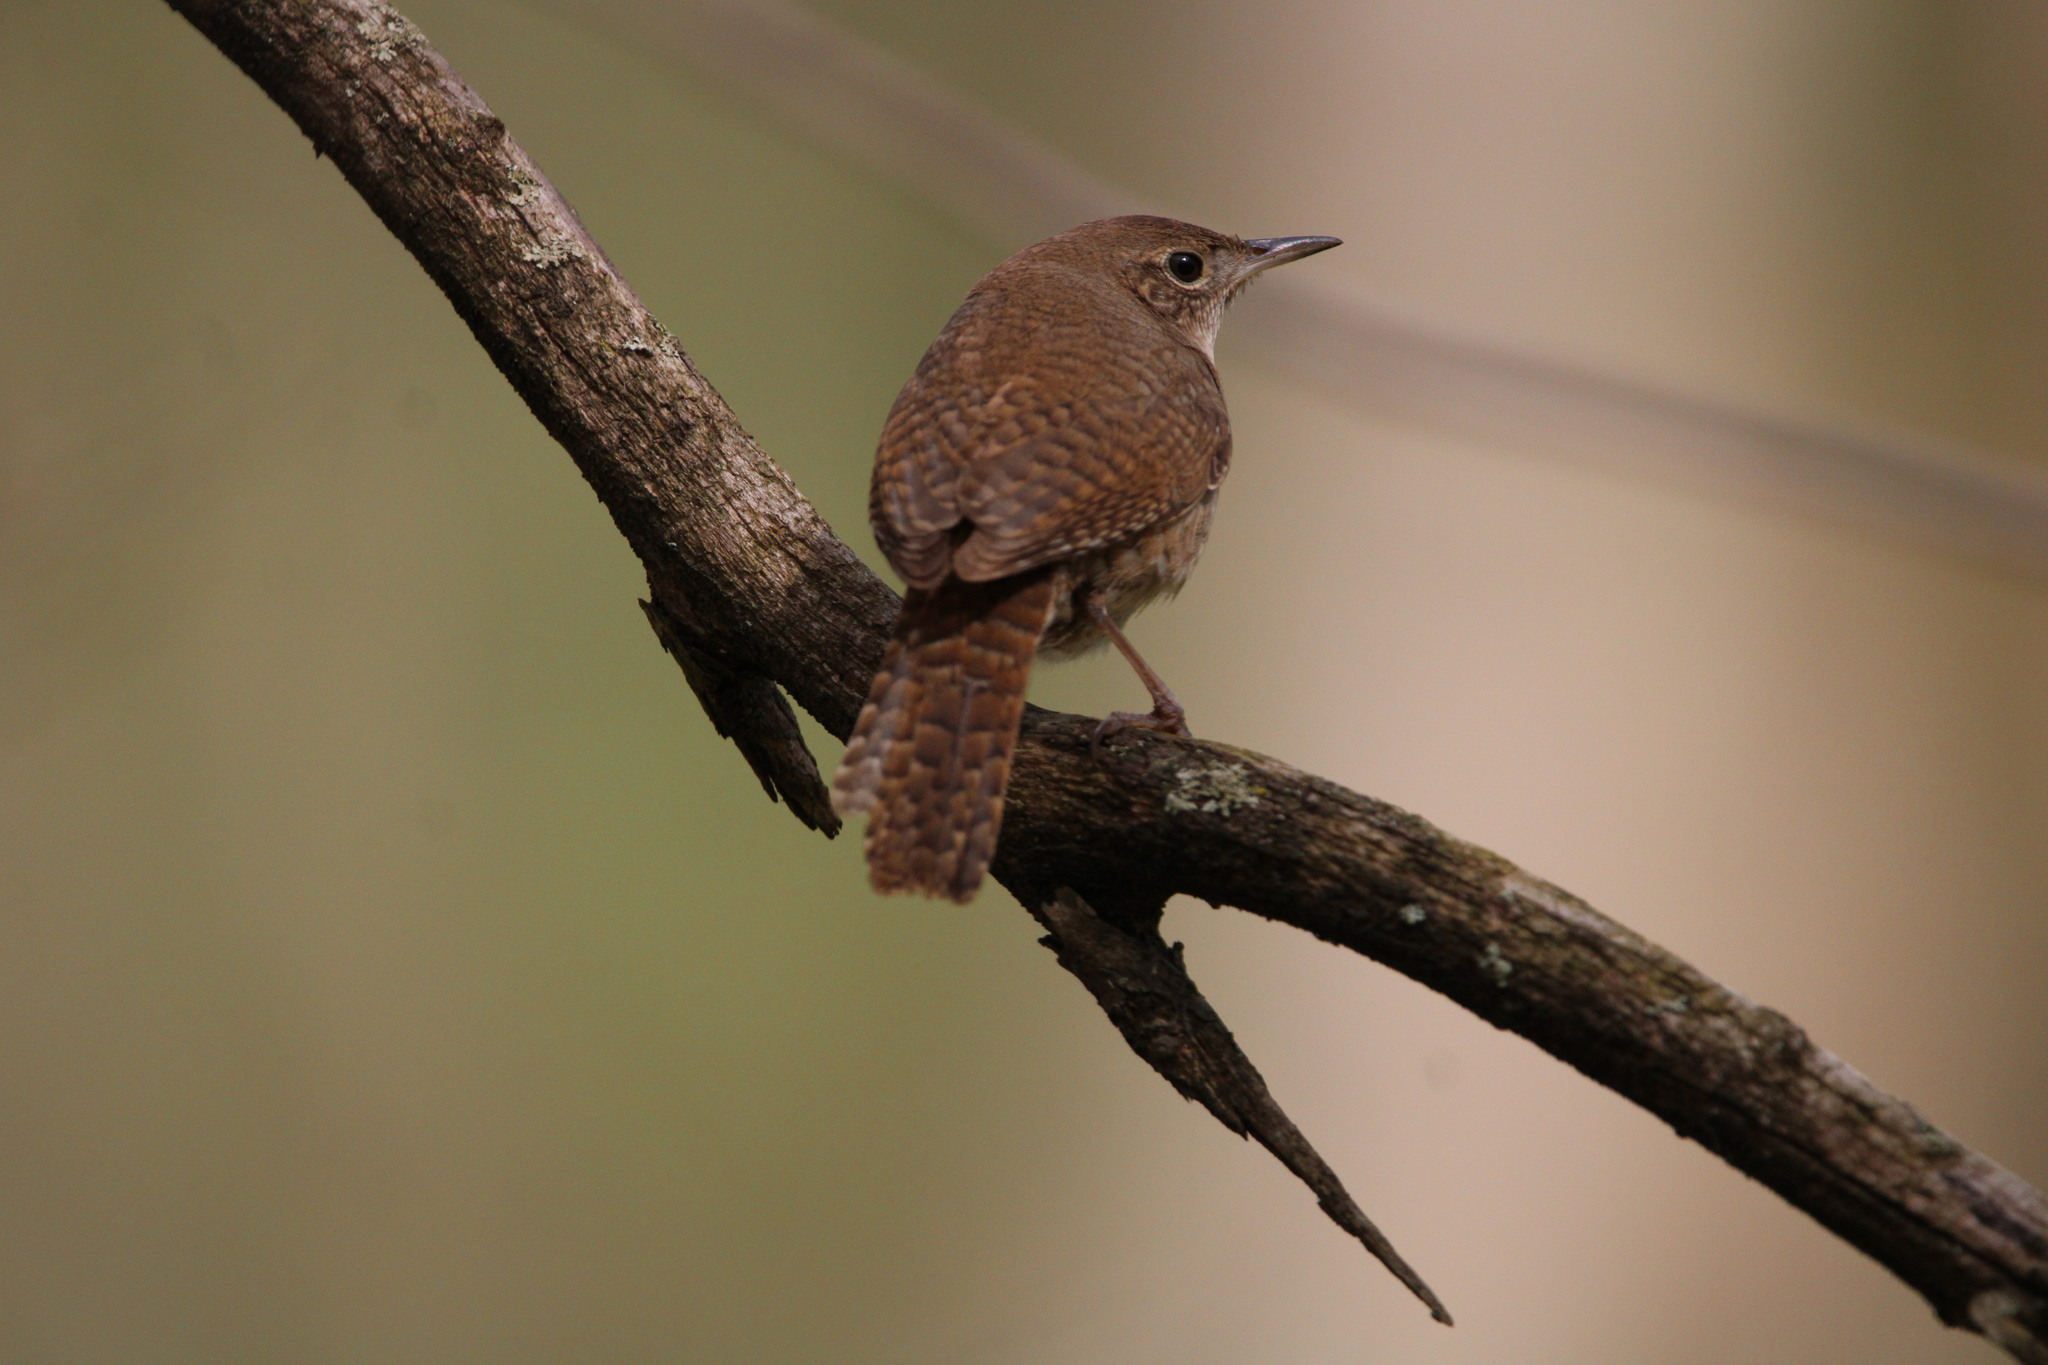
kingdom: Animalia
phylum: Chordata
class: Aves
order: Passeriformes
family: Troglodytidae
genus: Troglodytes
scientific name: Troglodytes aedon
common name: House wren
